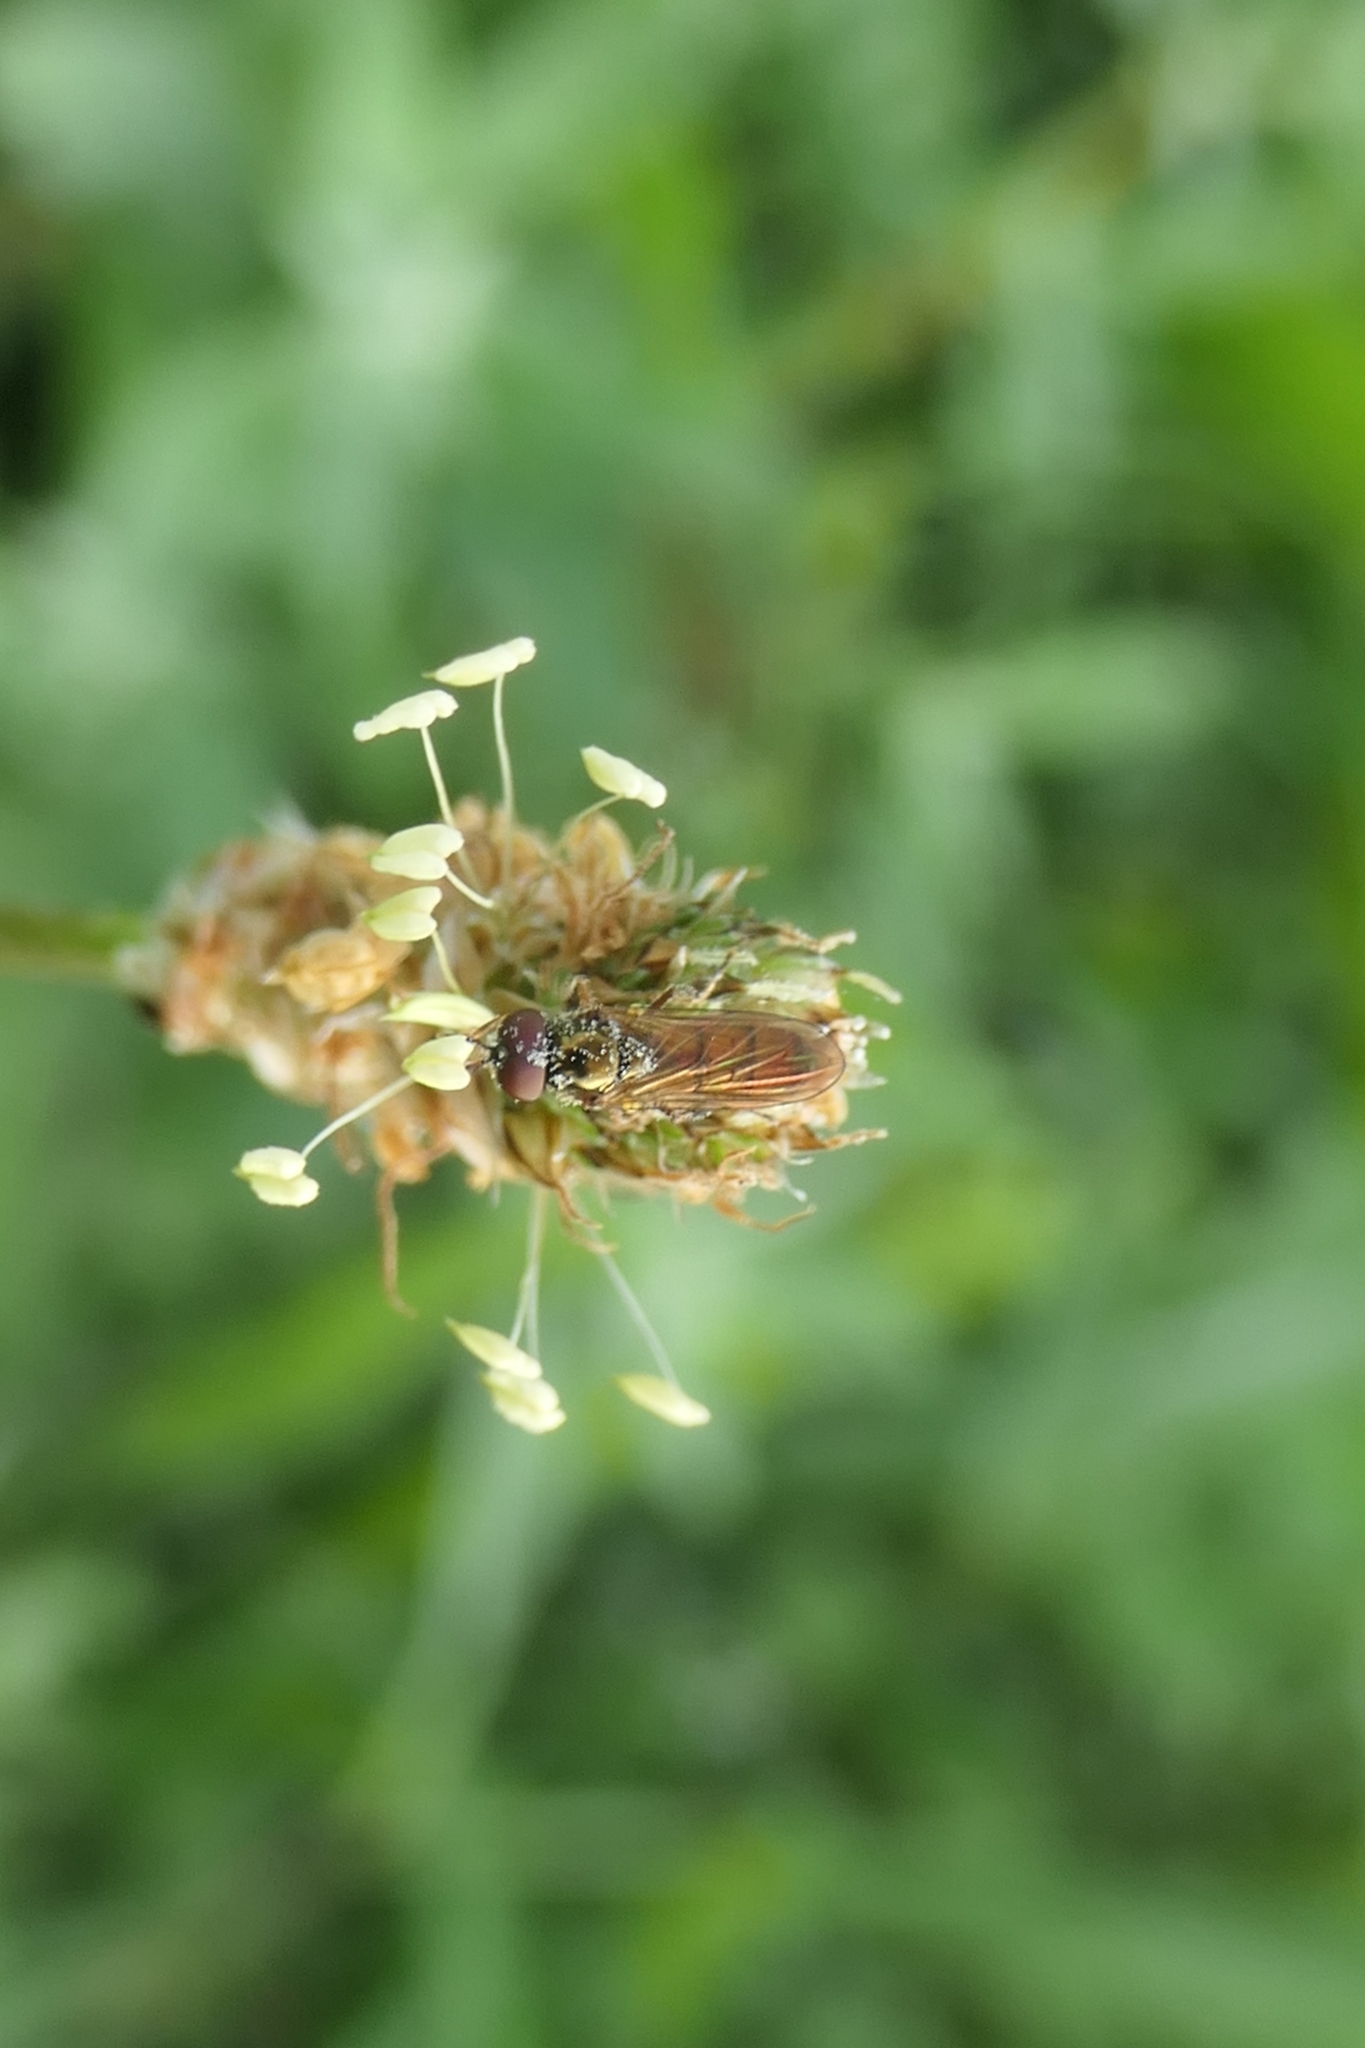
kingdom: Animalia
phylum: Arthropoda
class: Insecta
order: Diptera
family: Syrphidae
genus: Melanostoma
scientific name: Melanostoma fasciatum
